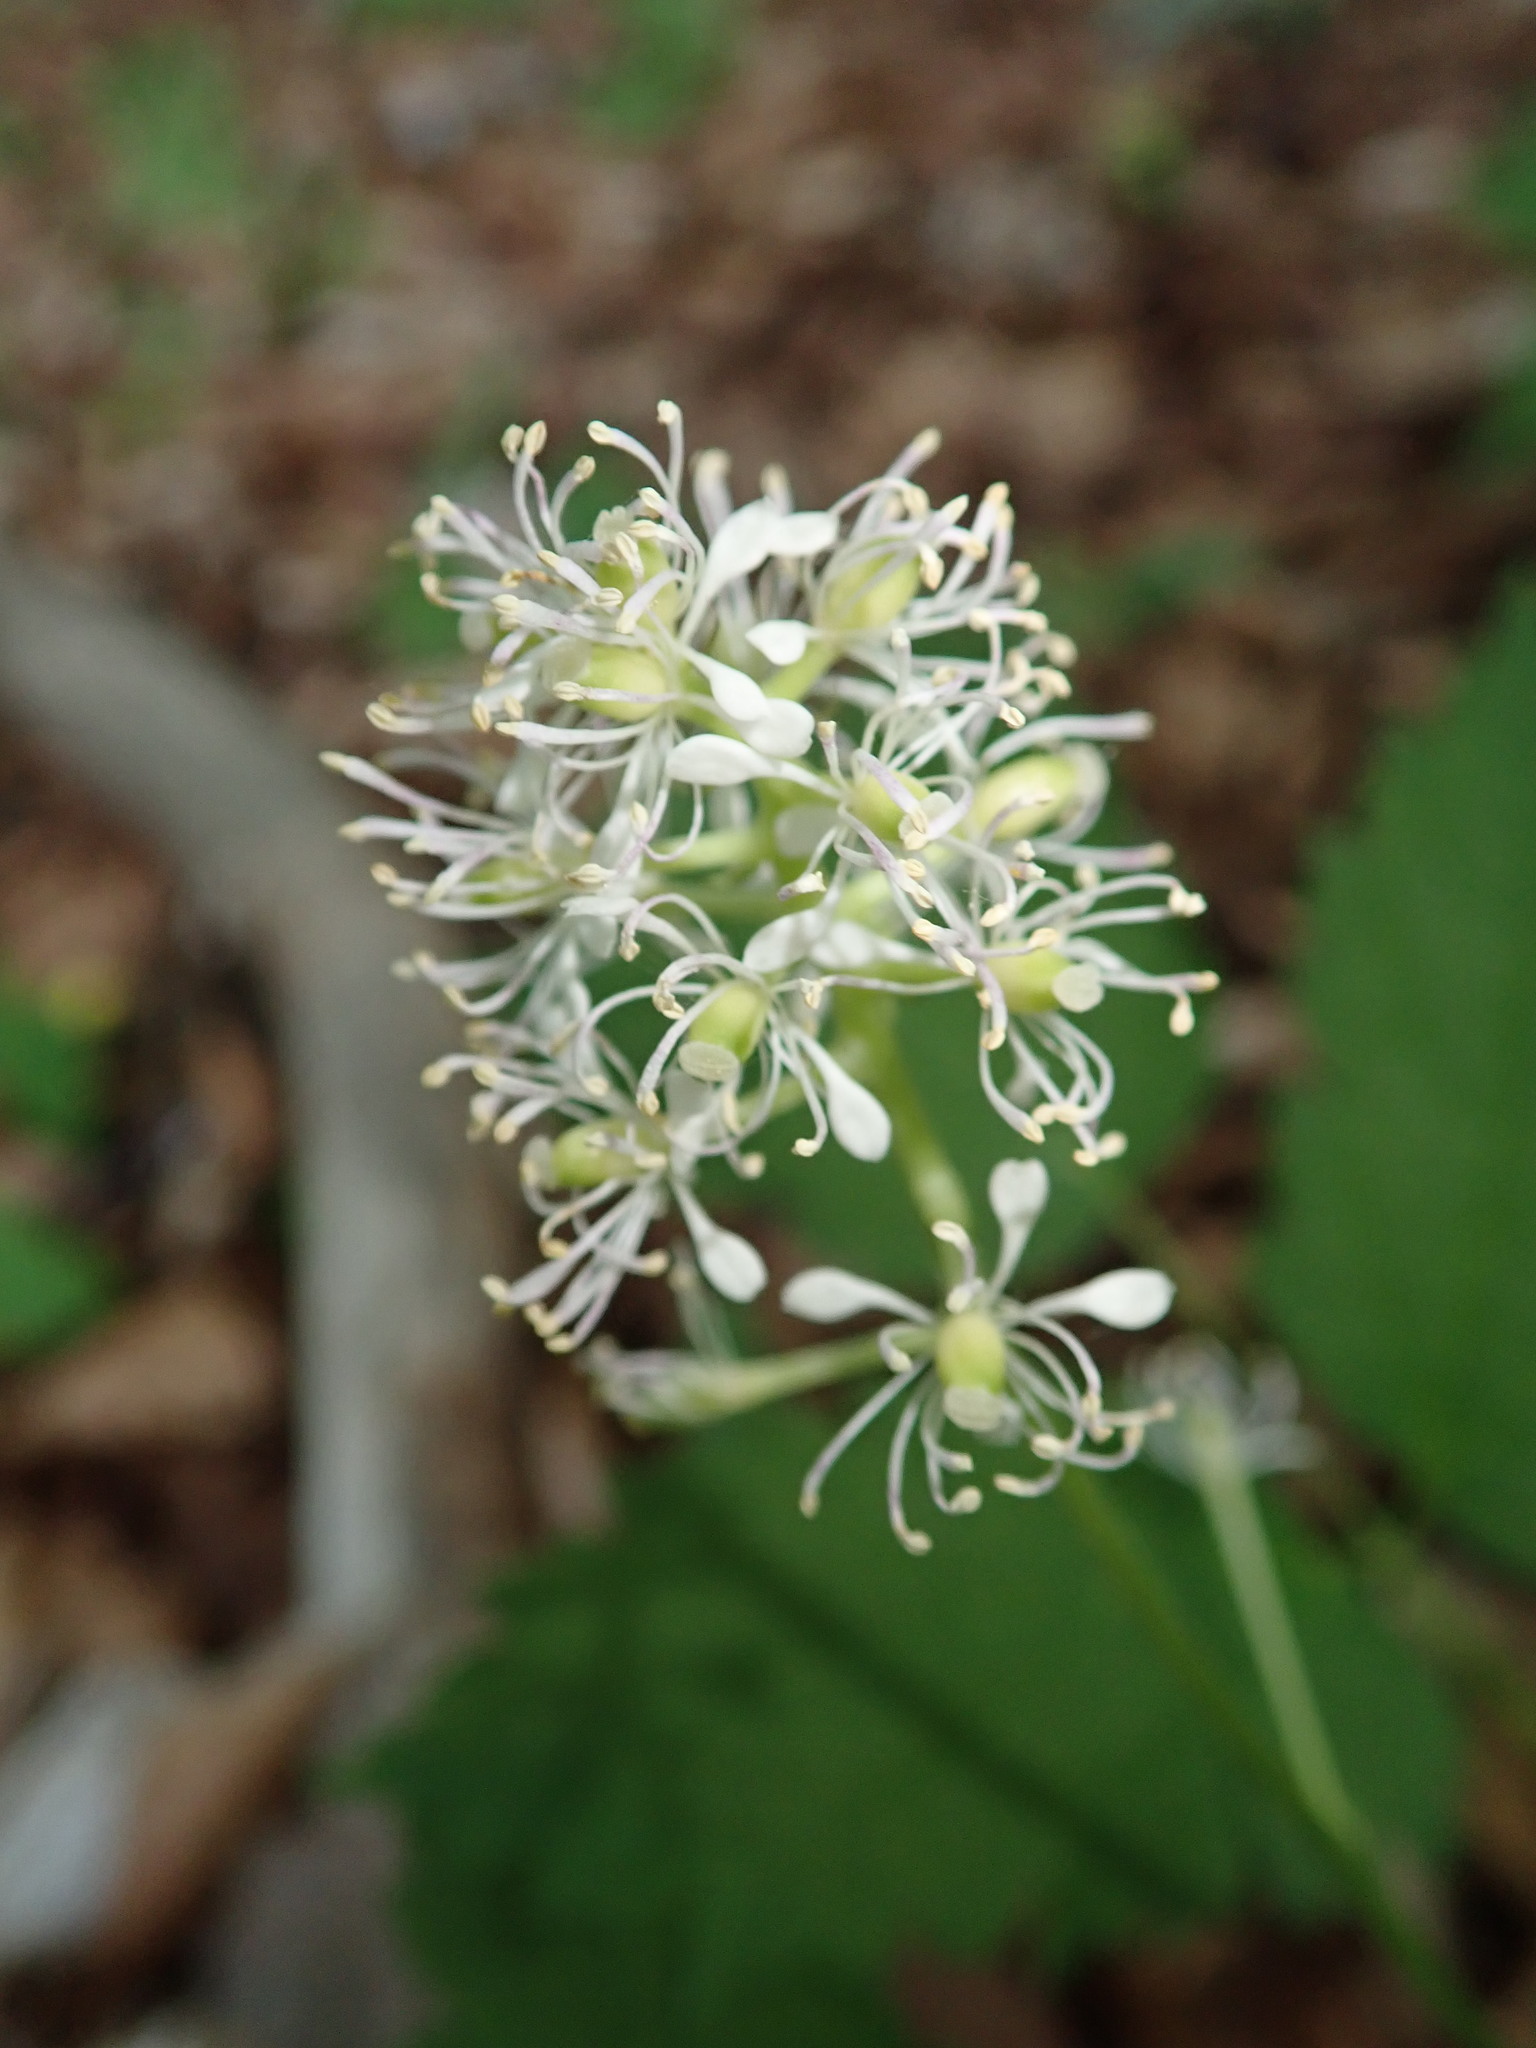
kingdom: Plantae
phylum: Tracheophyta
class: Magnoliopsida
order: Ranunculales
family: Ranunculaceae
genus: Actaea
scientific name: Actaea spicata
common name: Baneberry
